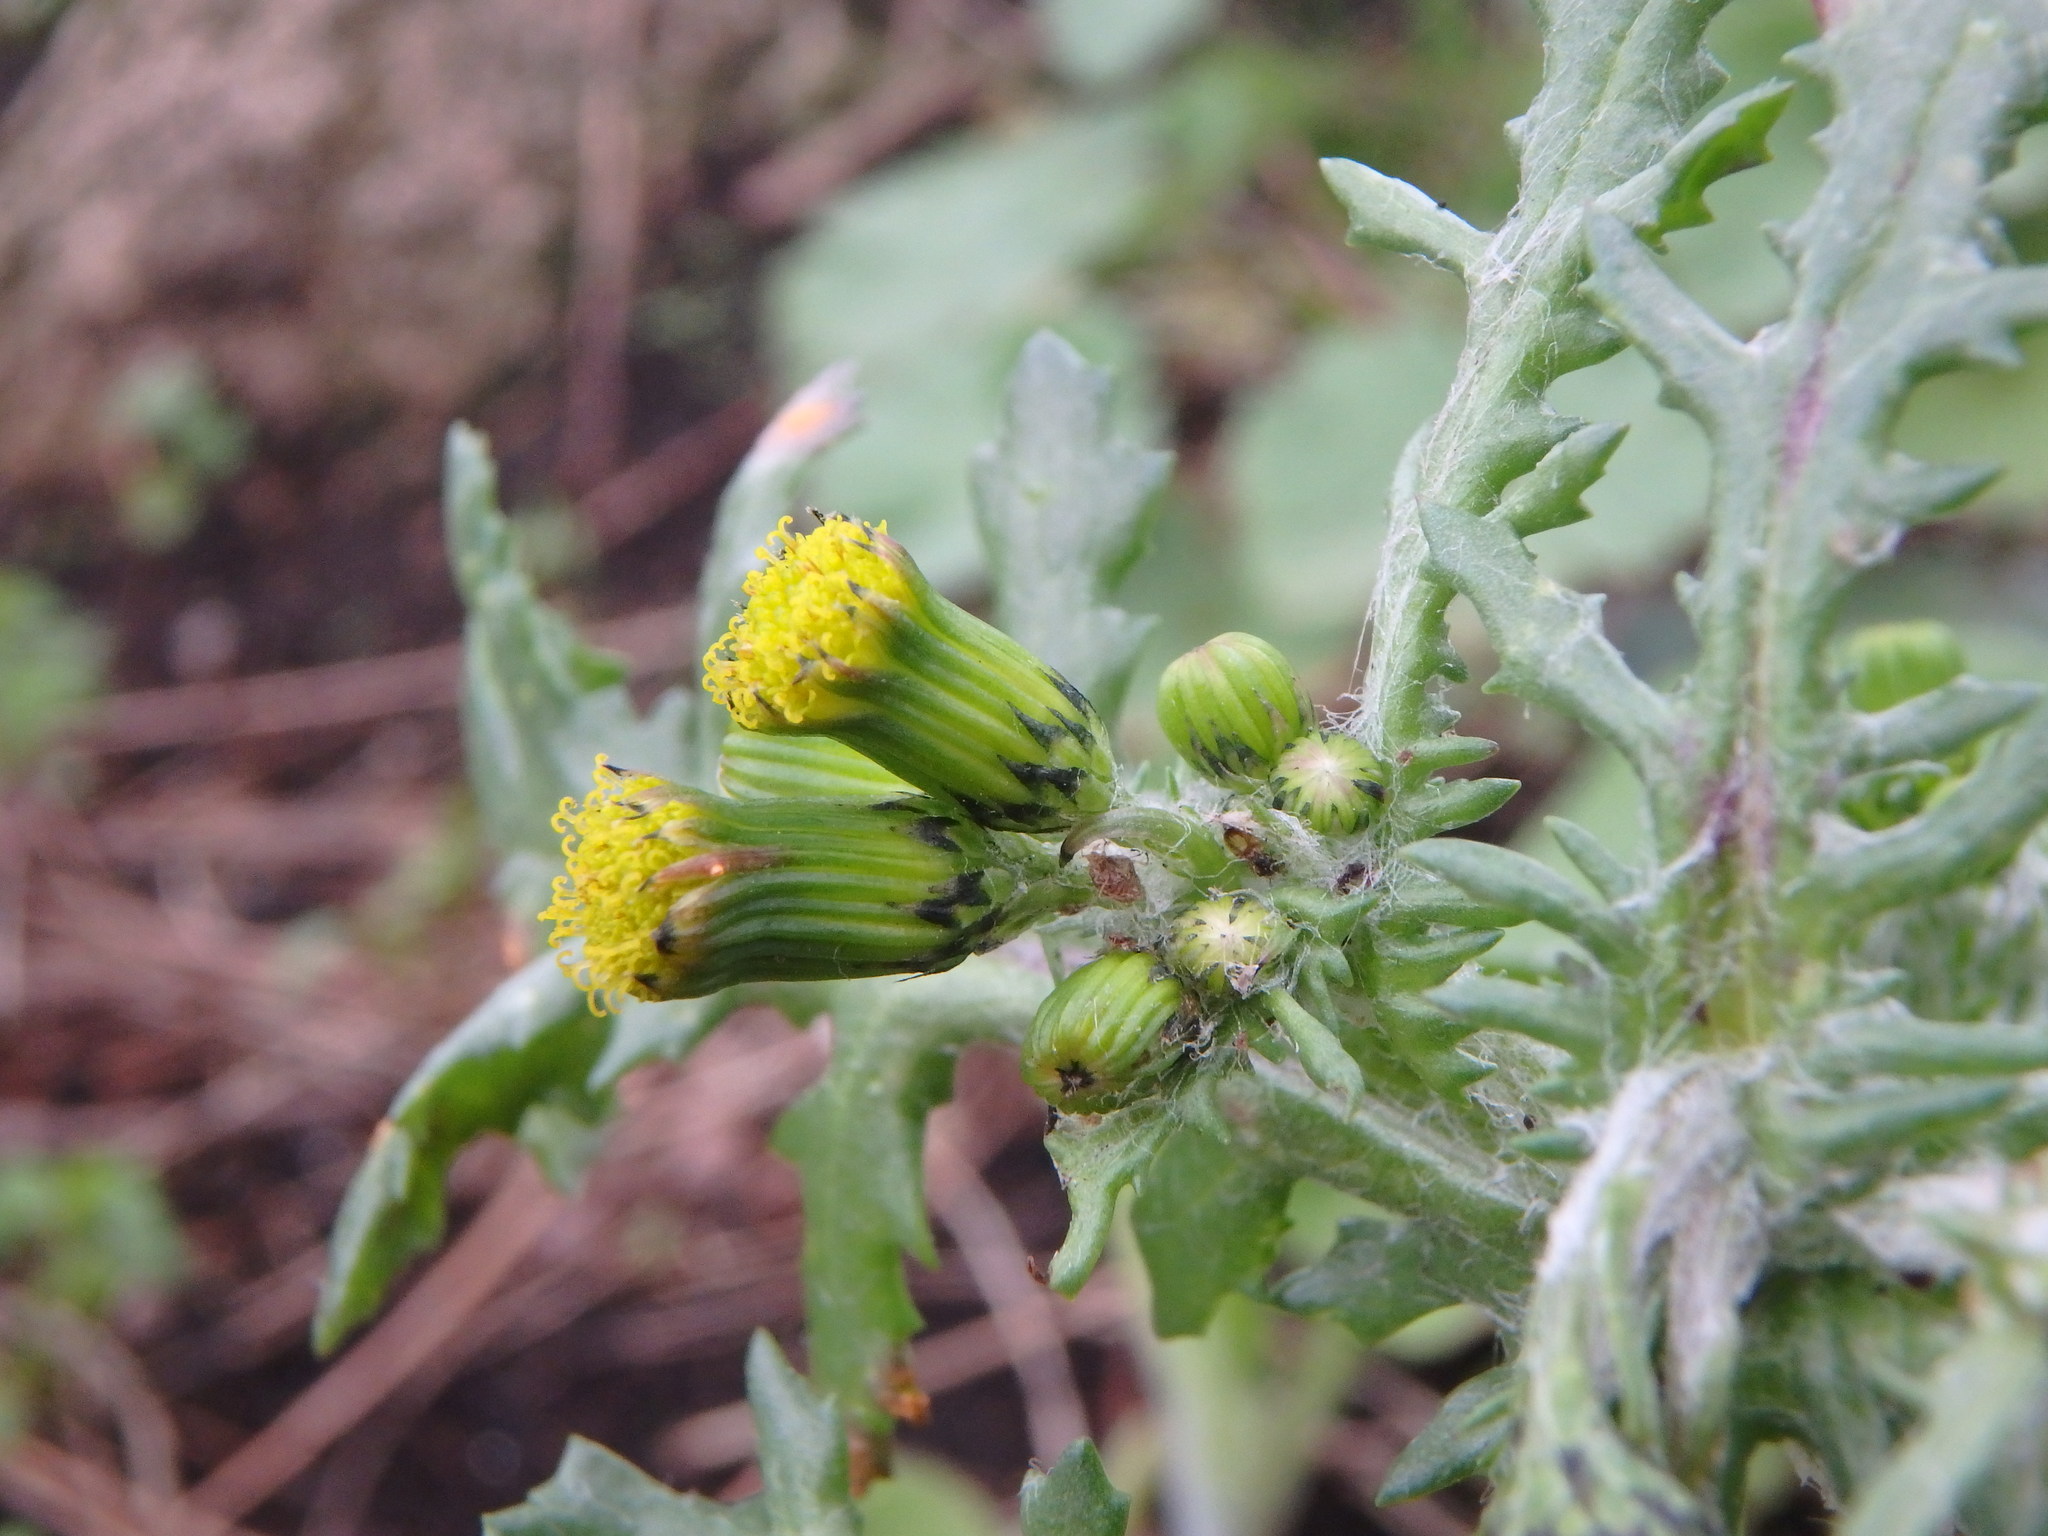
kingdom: Plantae
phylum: Tracheophyta
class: Magnoliopsida
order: Asterales
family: Asteraceae
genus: Senecio
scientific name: Senecio vulgaris
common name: Old-man-in-the-spring
